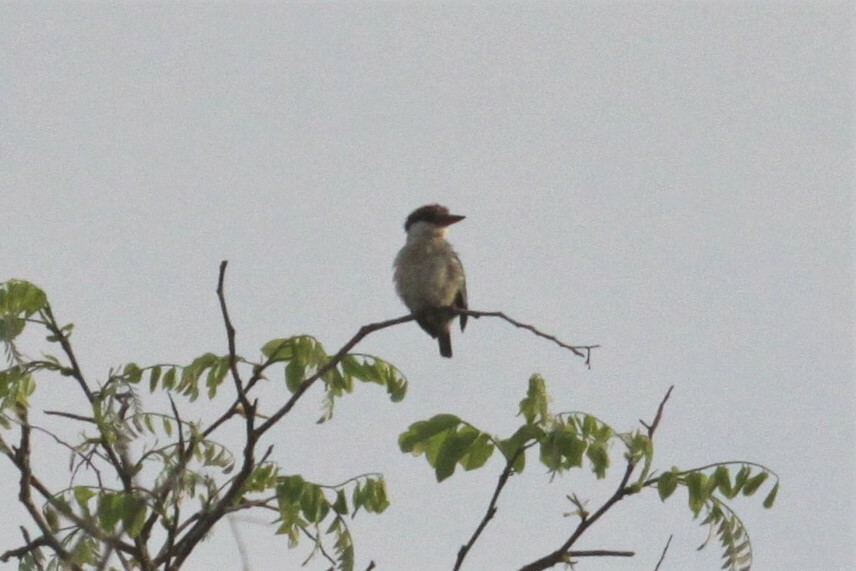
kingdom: Animalia
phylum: Chordata
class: Aves
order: Coraciiformes
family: Alcedinidae
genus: Halcyon
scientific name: Halcyon chelicuti
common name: Striped kingfisher
